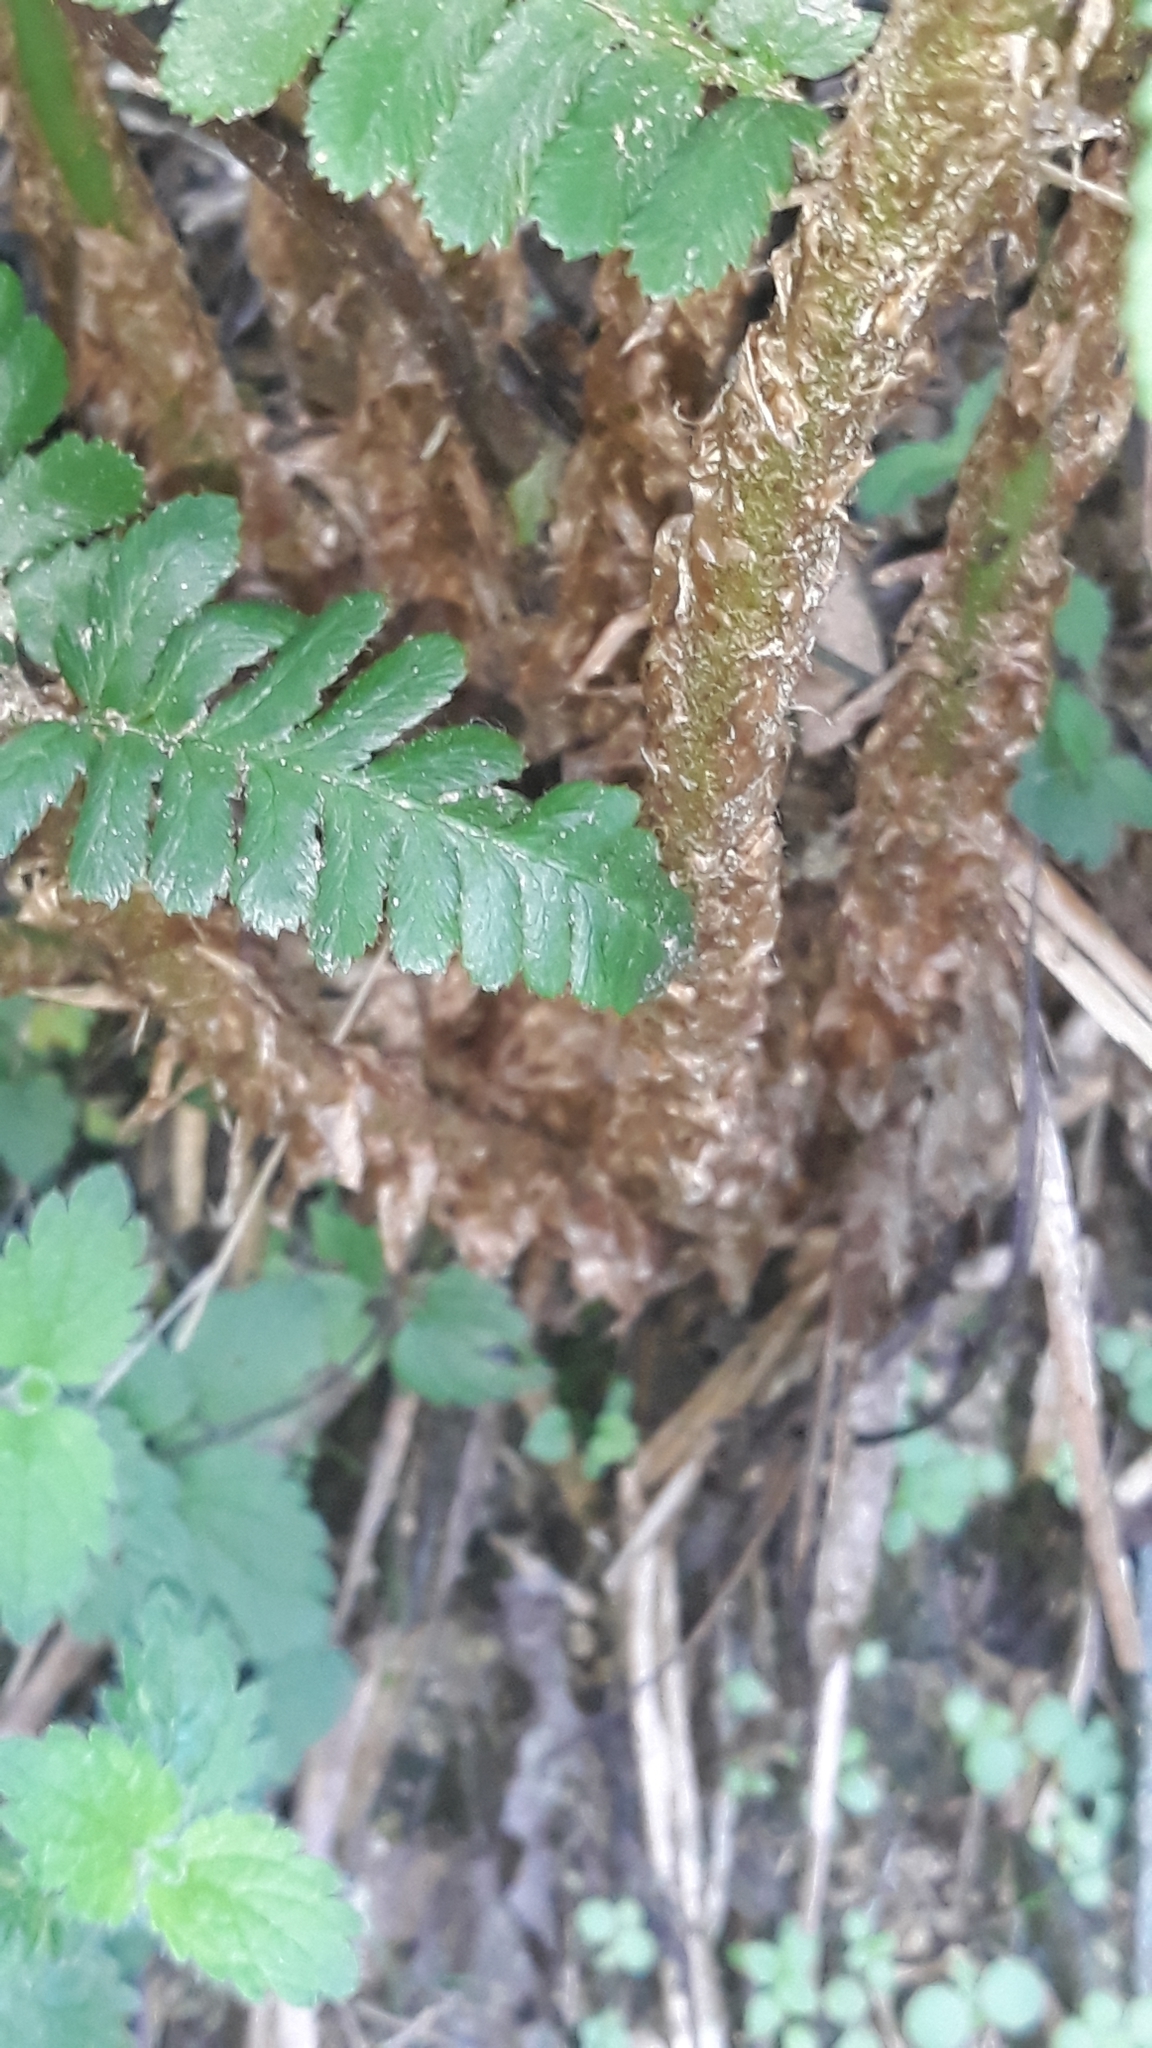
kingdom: Plantae
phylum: Tracheophyta
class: Polypodiopsida
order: Polypodiales
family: Dryopteridaceae
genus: Dryopteris
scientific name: Dryopteris filix-mas
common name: Male fern
